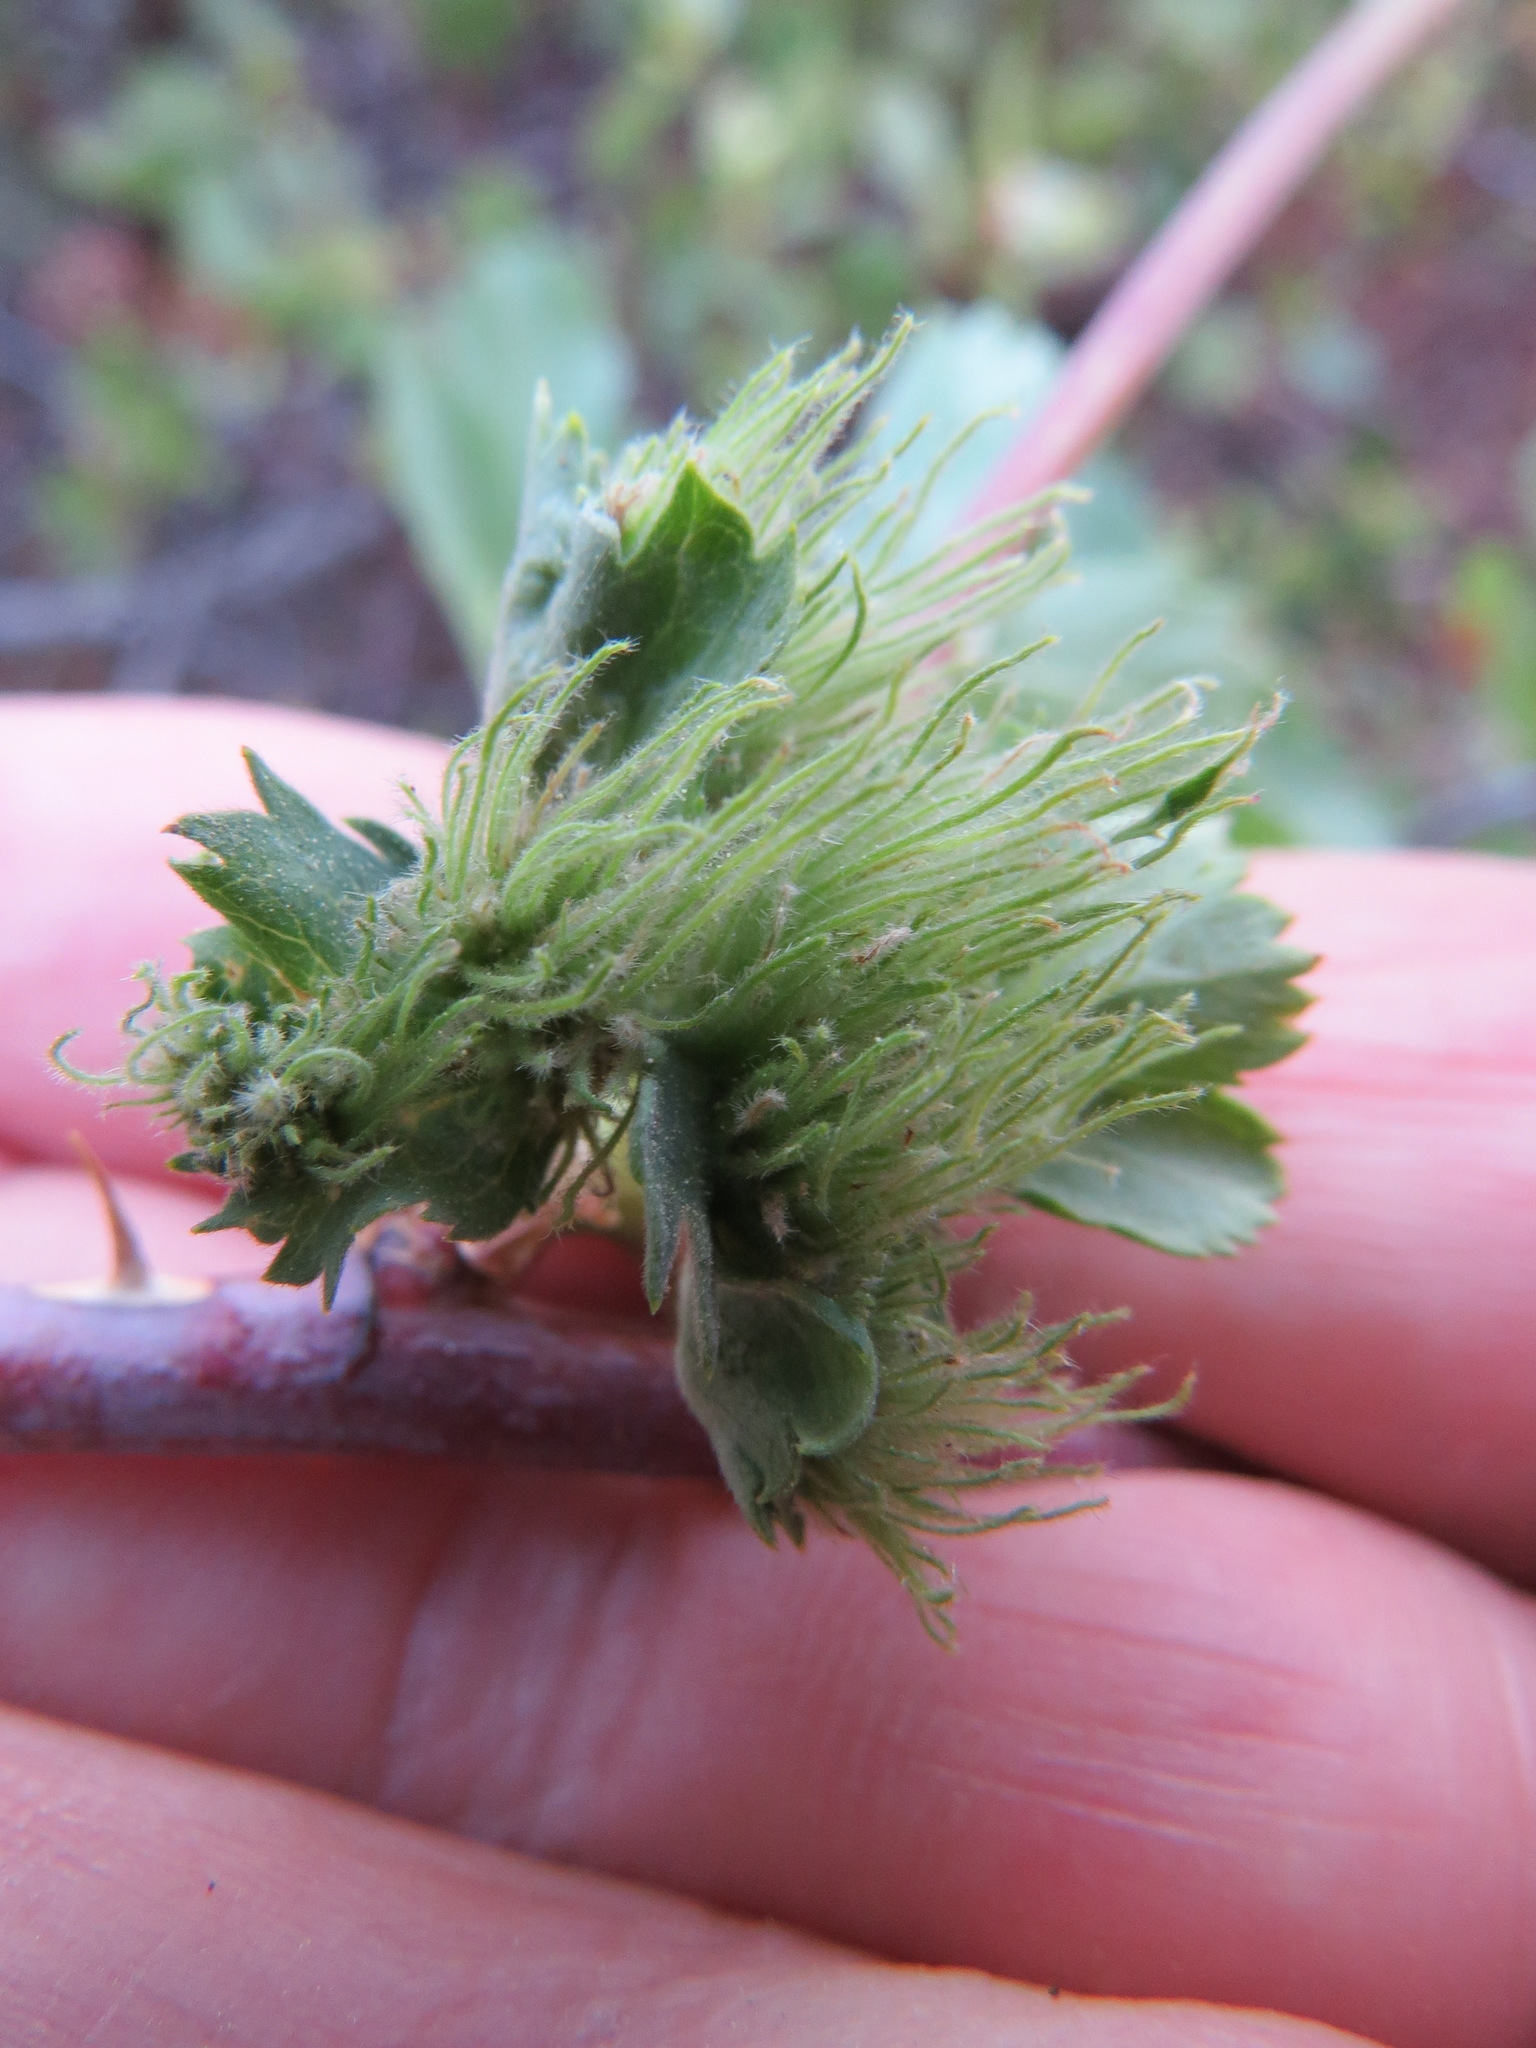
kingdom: Animalia
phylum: Arthropoda
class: Insecta
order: Hymenoptera
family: Cynipidae
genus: Diplolepis
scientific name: Diplolepis rosae
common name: Bedeguar gall
